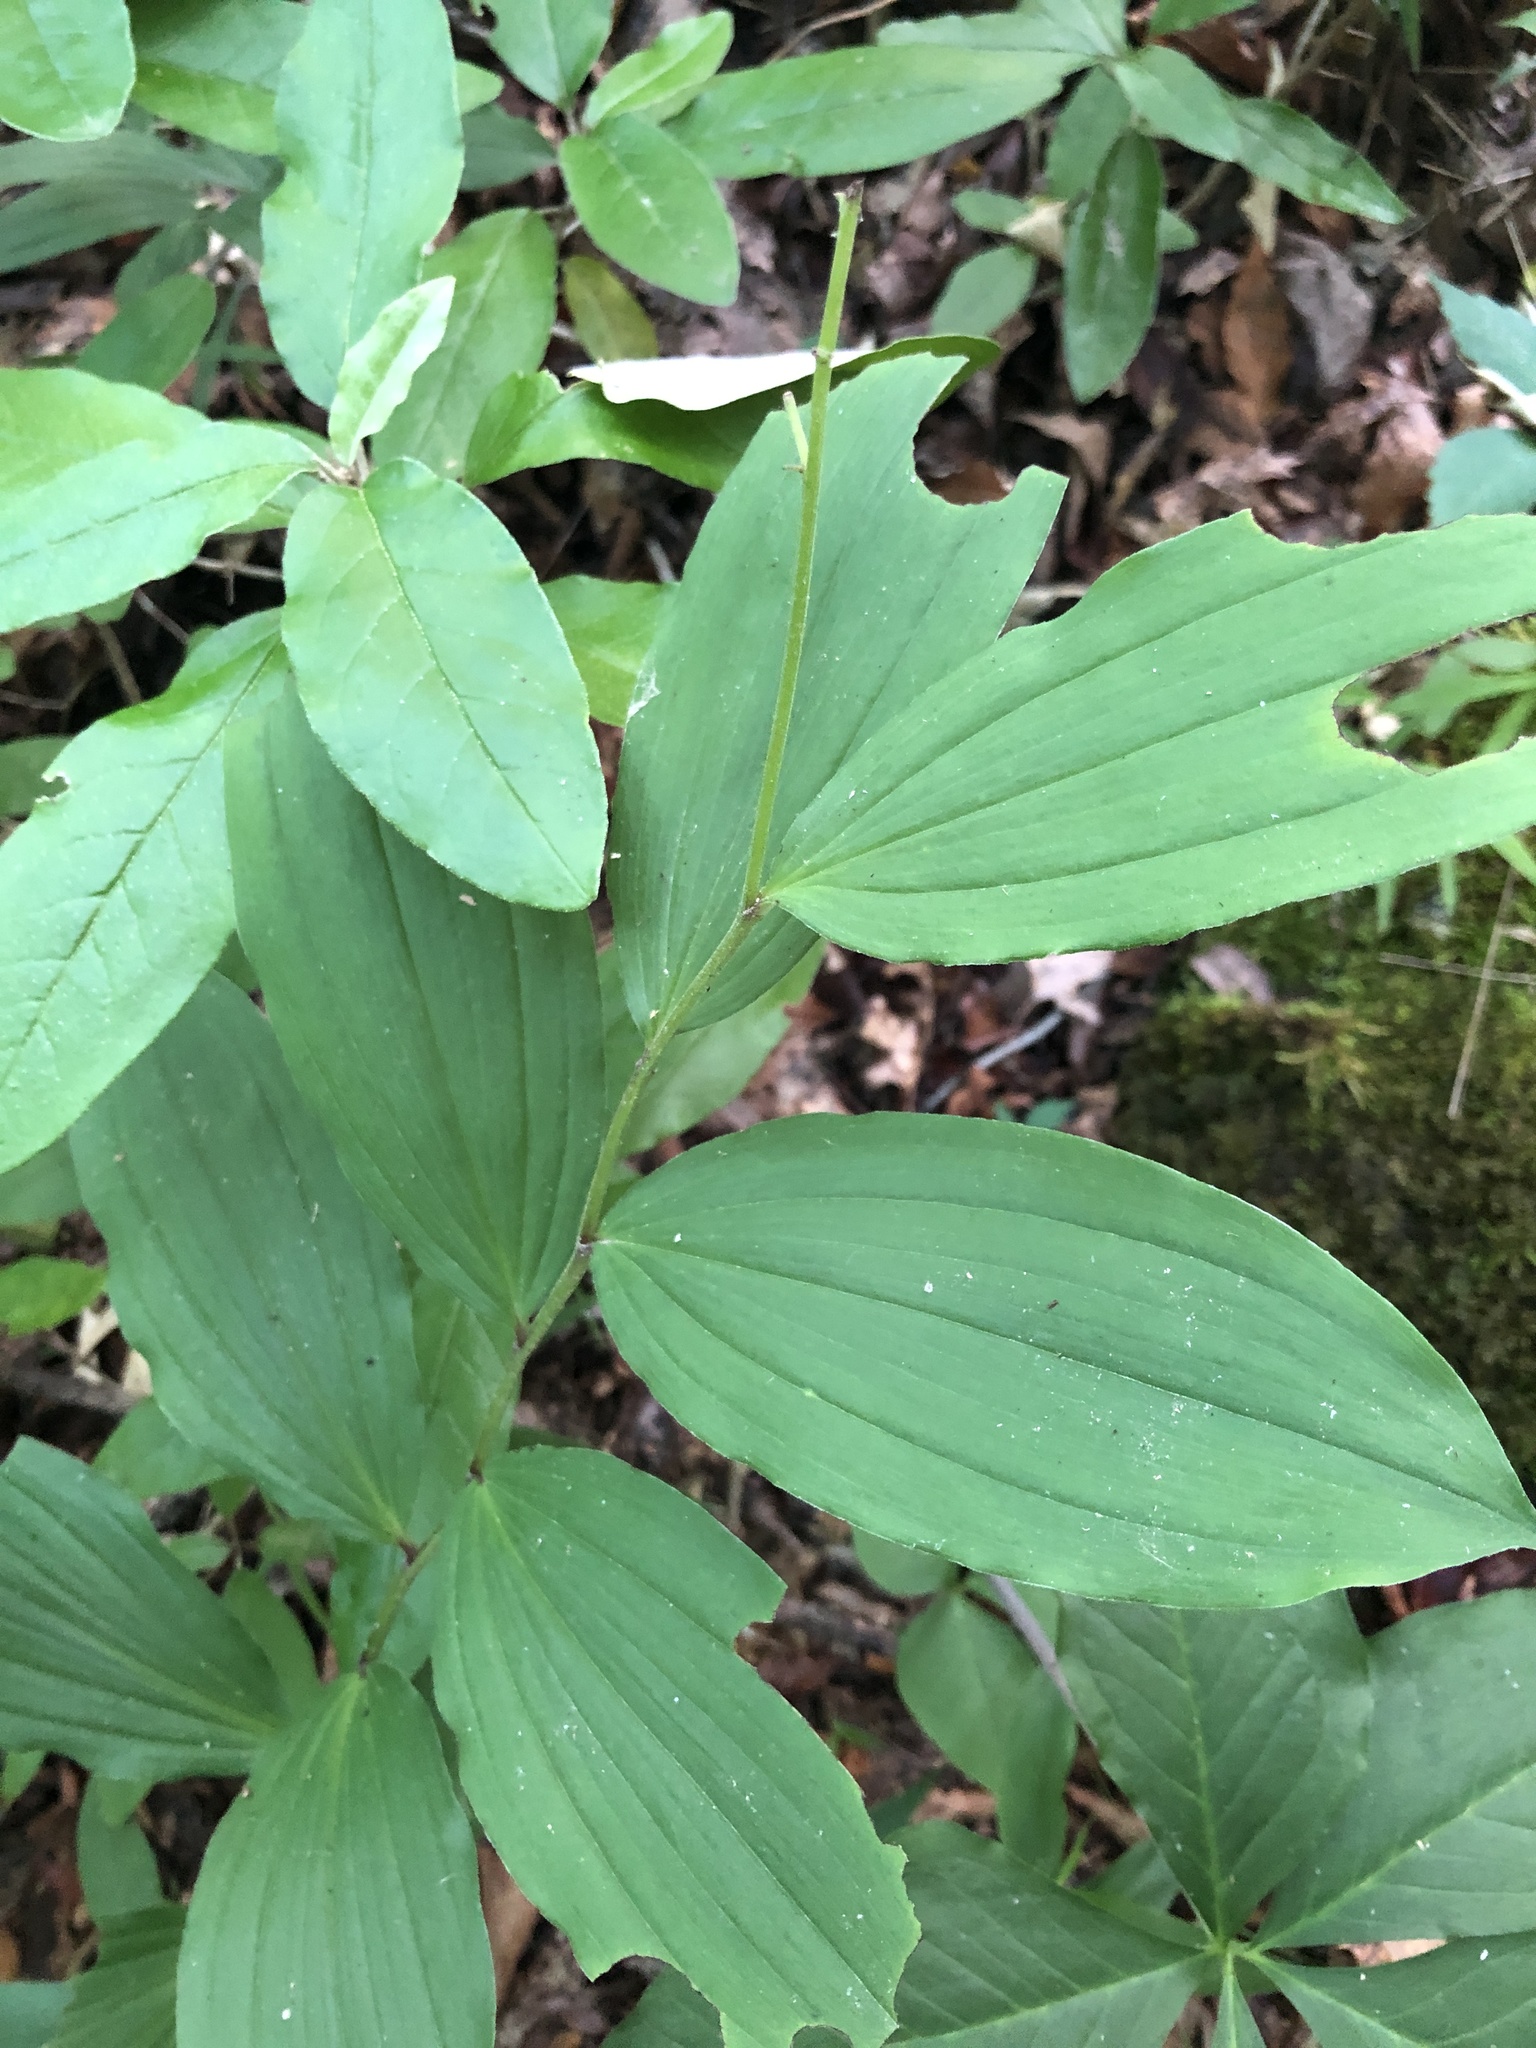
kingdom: Plantae
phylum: Tracheophyta
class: Liliopsida
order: Asparagales
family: Asparagaceae
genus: Maianthemum
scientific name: Maianthemum racemosum
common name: False spikenard
